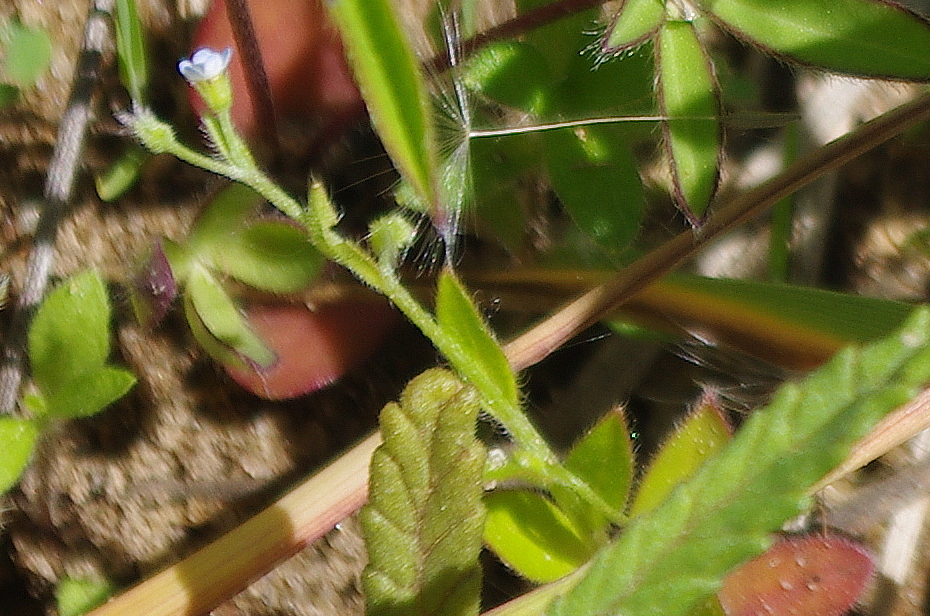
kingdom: Plantae
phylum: Tracheophyta
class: Magnoliopsida
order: Boraginales
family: Boraginaceae
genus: Myosotis
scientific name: Myosotis sparsiflora
